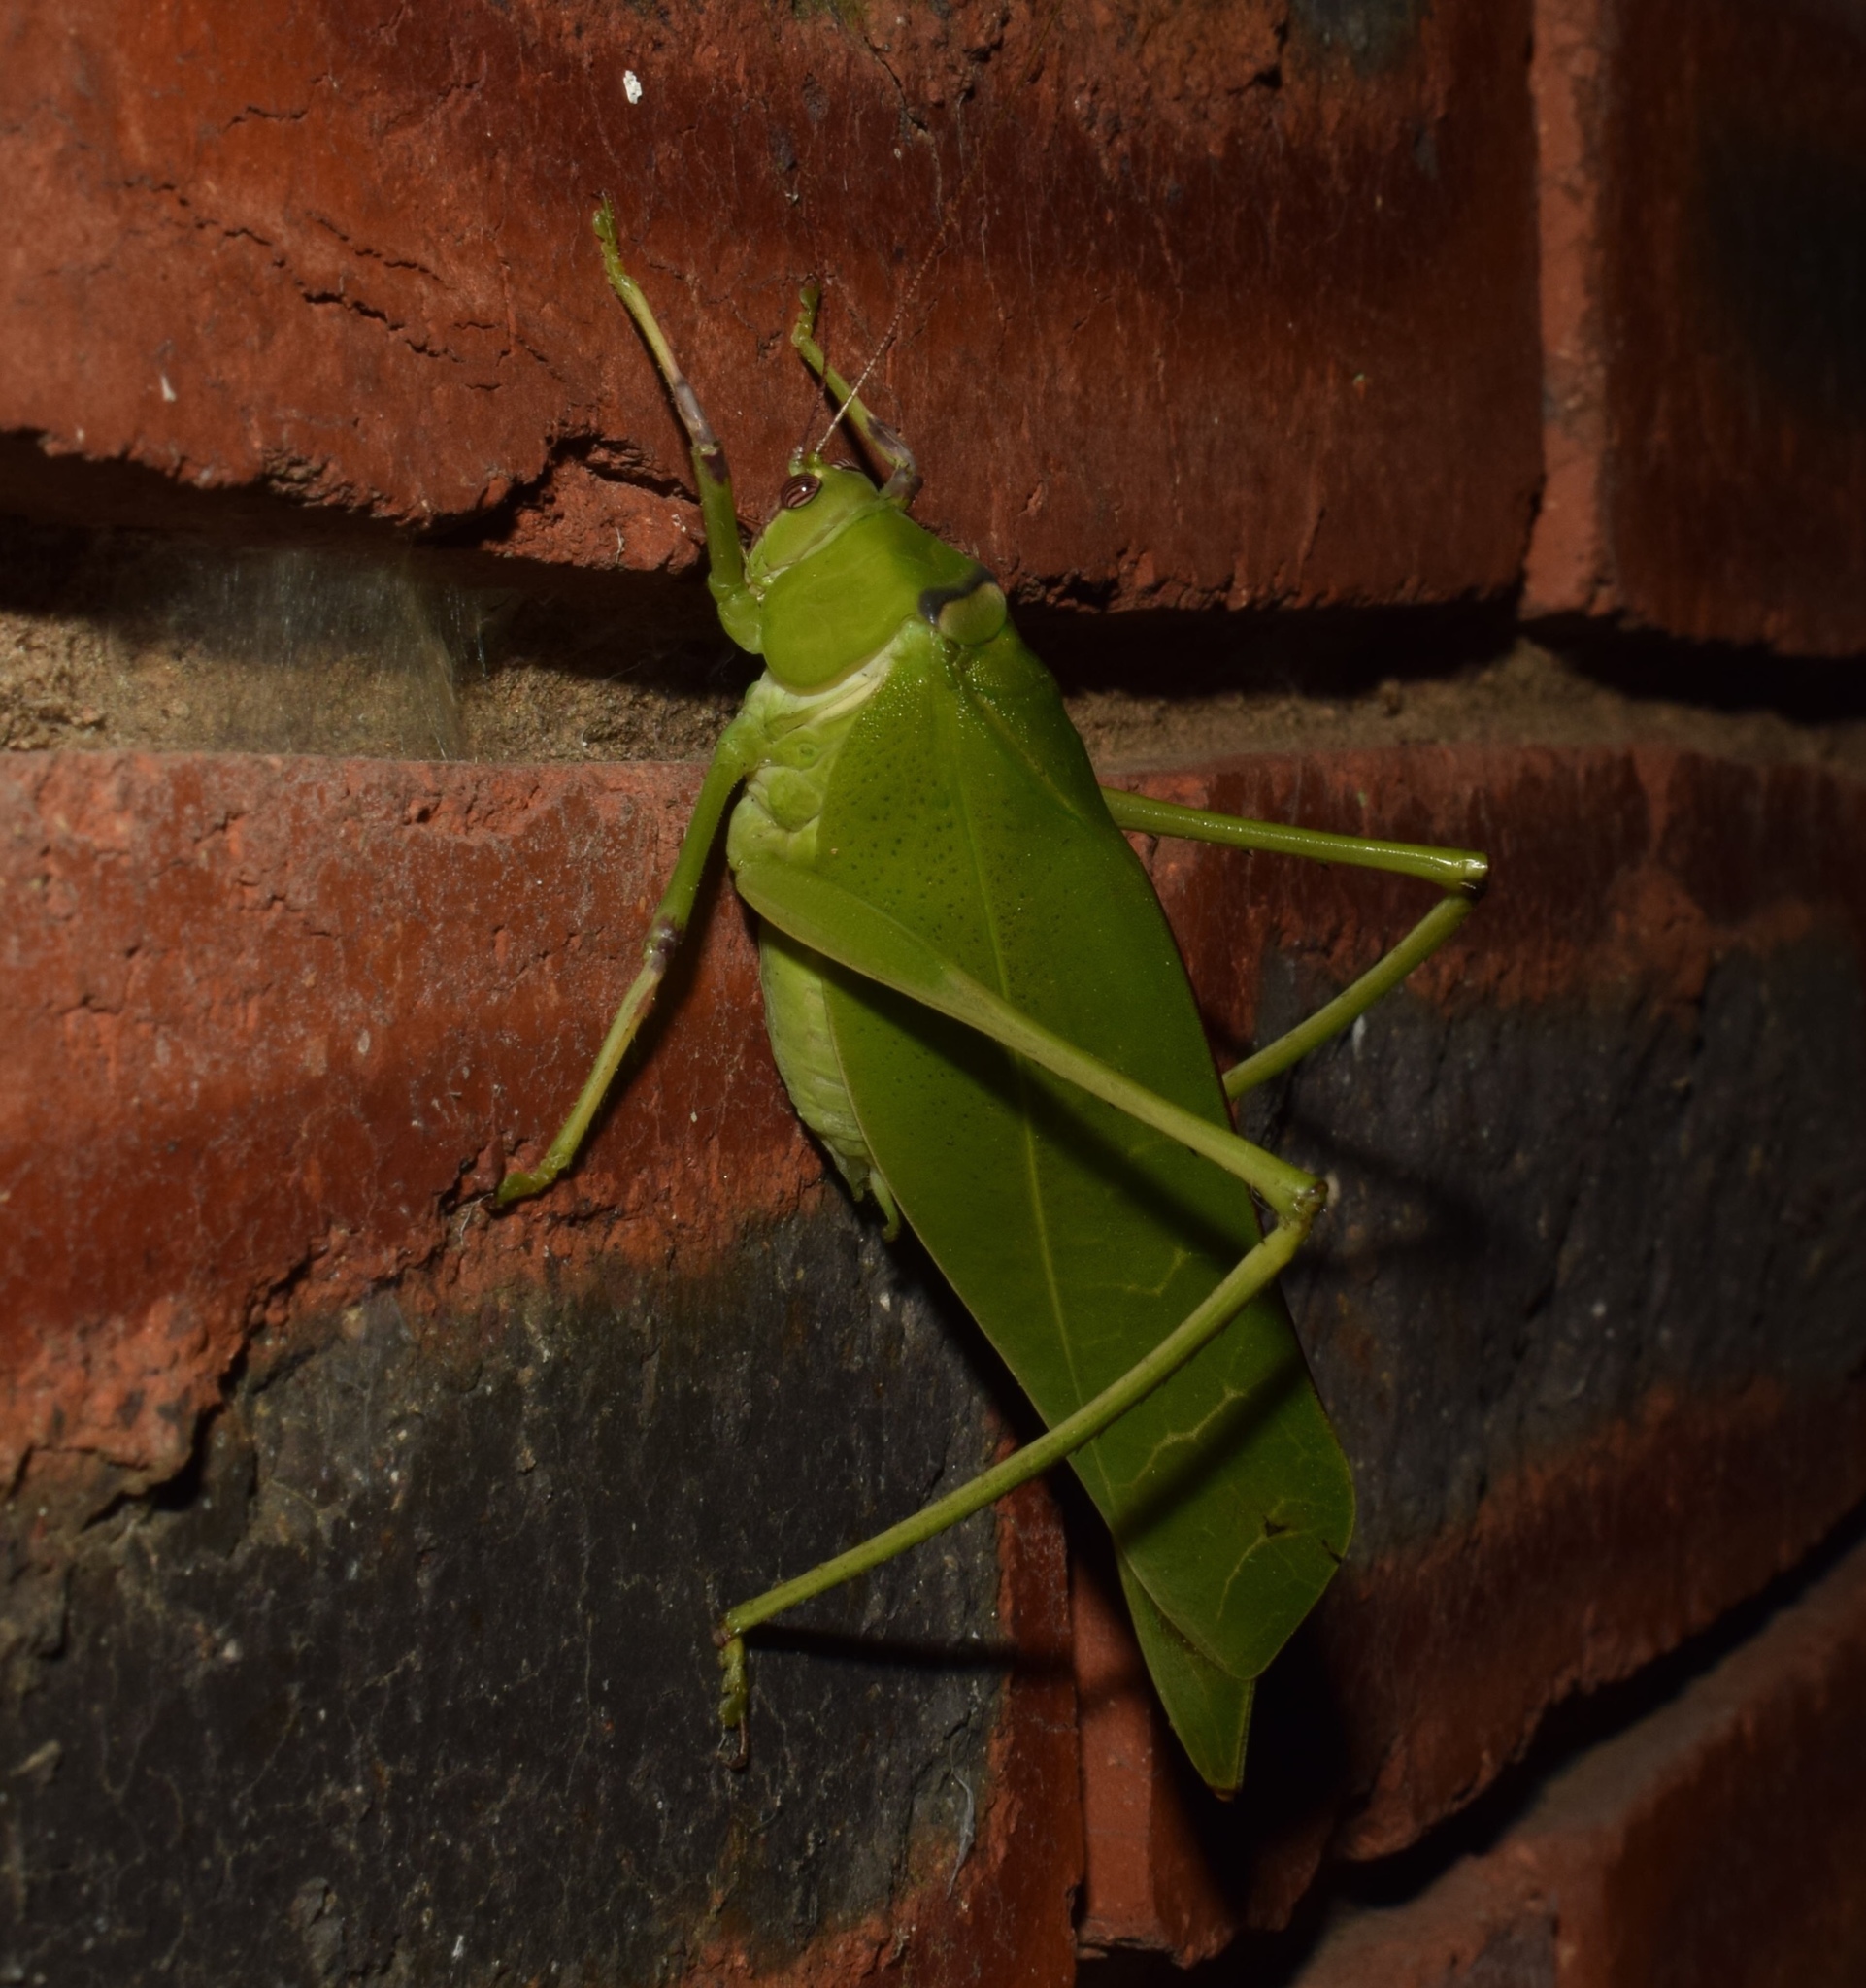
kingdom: Animalia
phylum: Arthropoda
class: Insecta
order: Orthoptera
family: Tettigoniidae
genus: Arantia
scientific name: Arantia fasciata
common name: Giant leaf katydid
